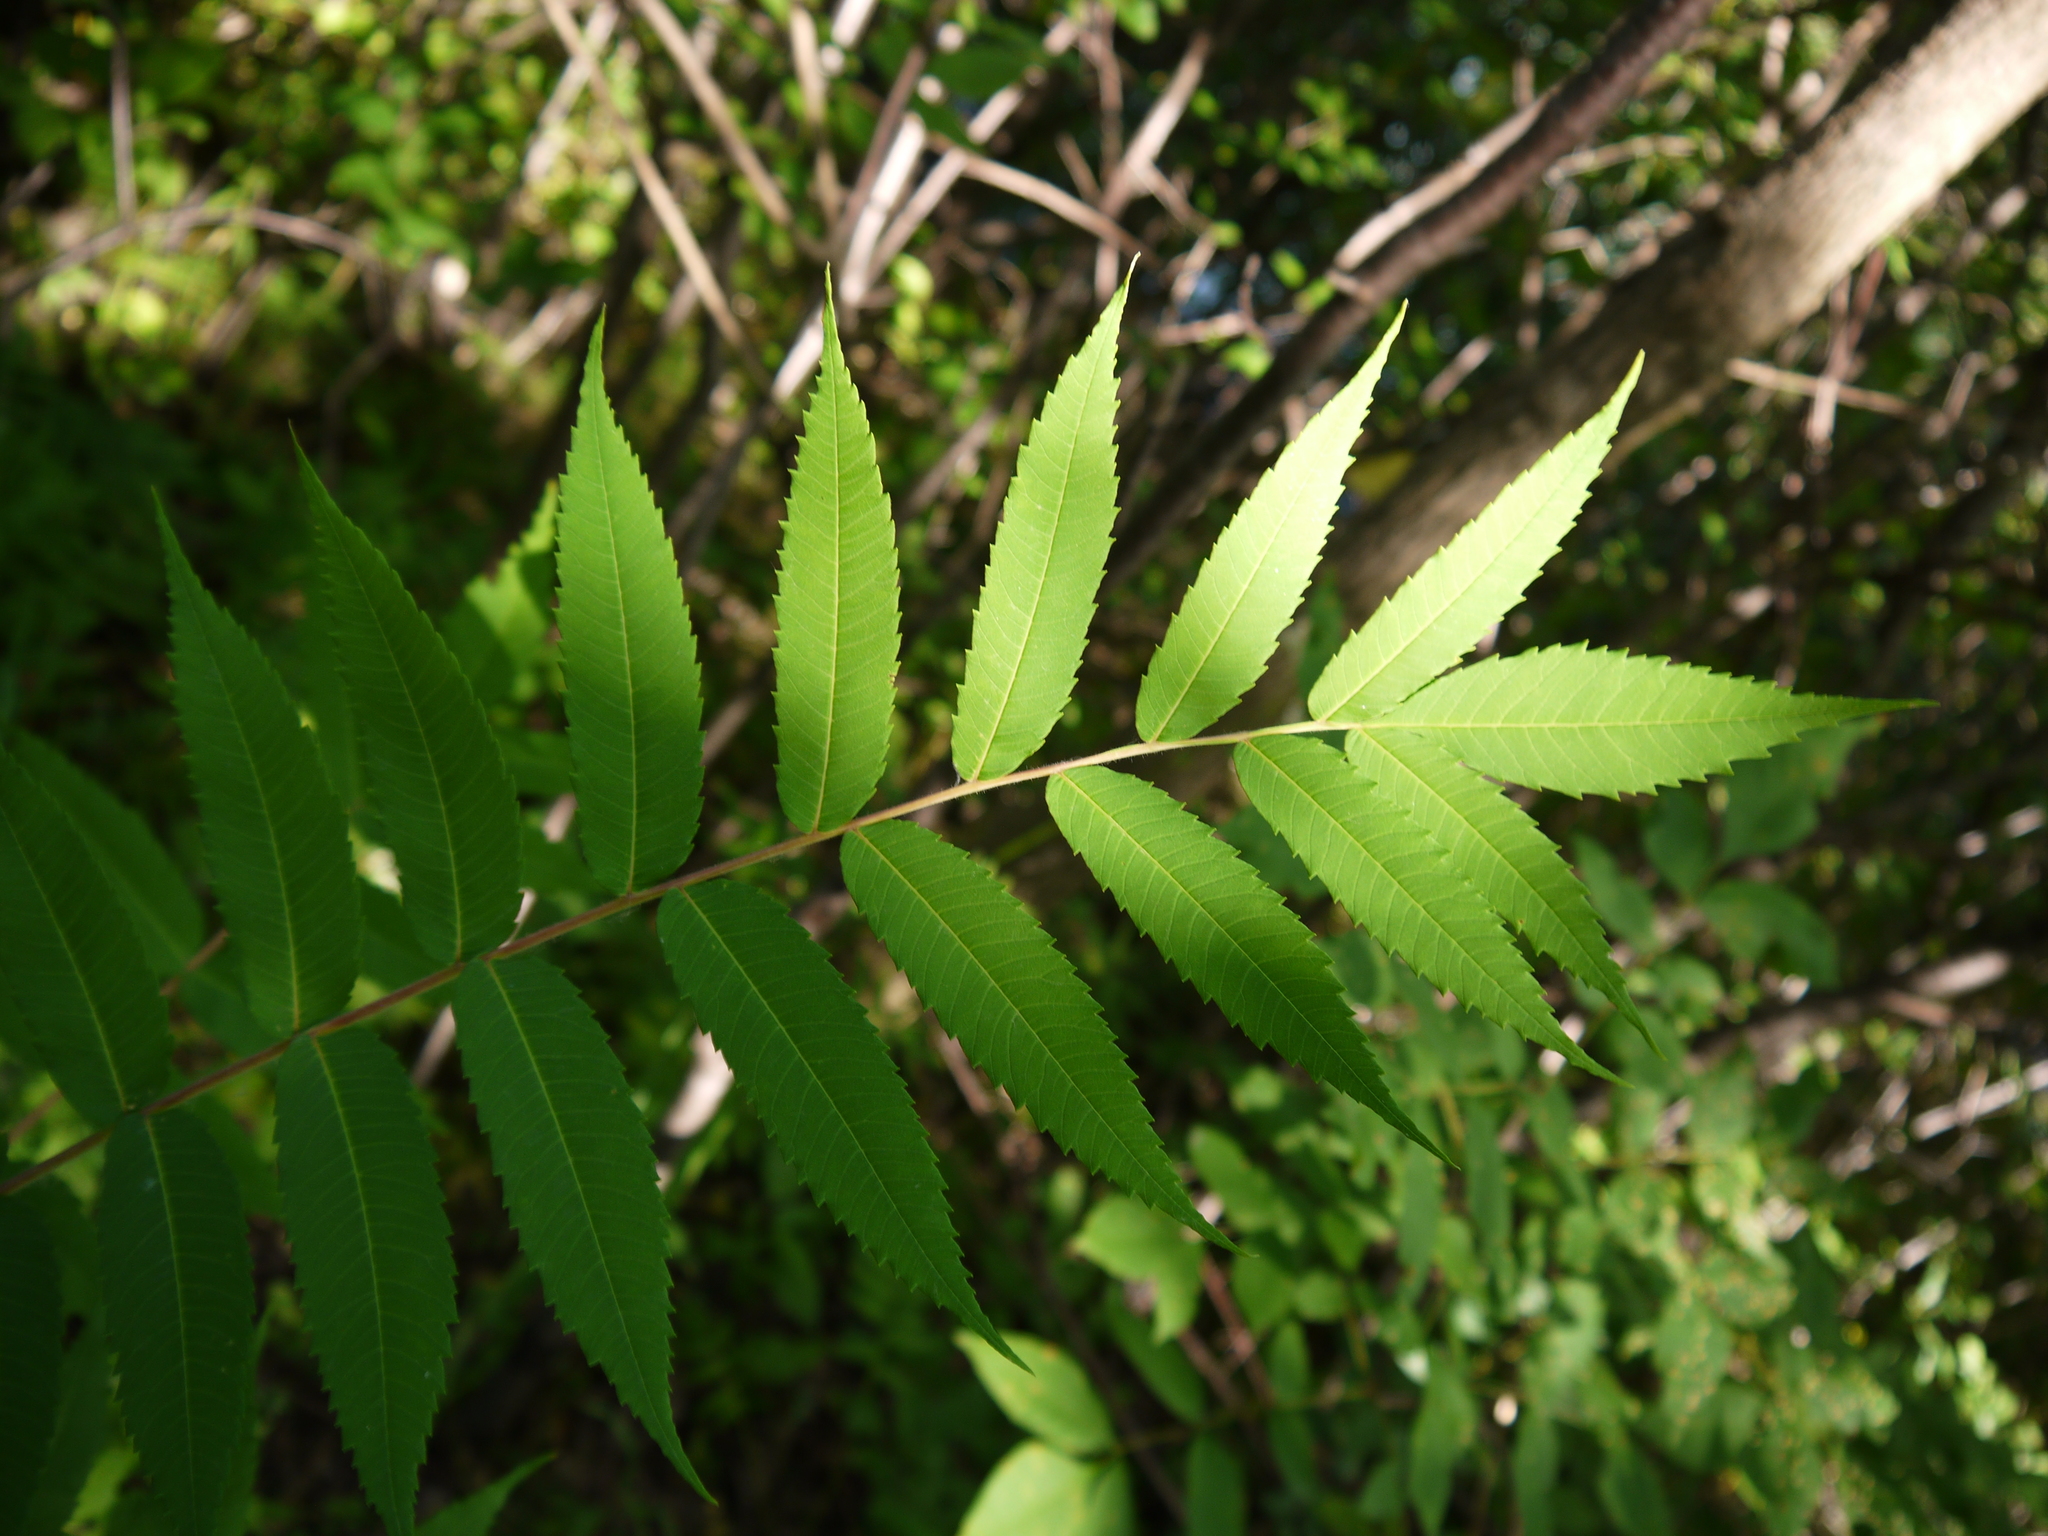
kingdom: Plantae
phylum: Tracheophyta
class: Magnoliopsida
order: Sapindales
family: Anacardiaceae
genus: Rhus
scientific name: Rhus typhina
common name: Staghorn sumac
